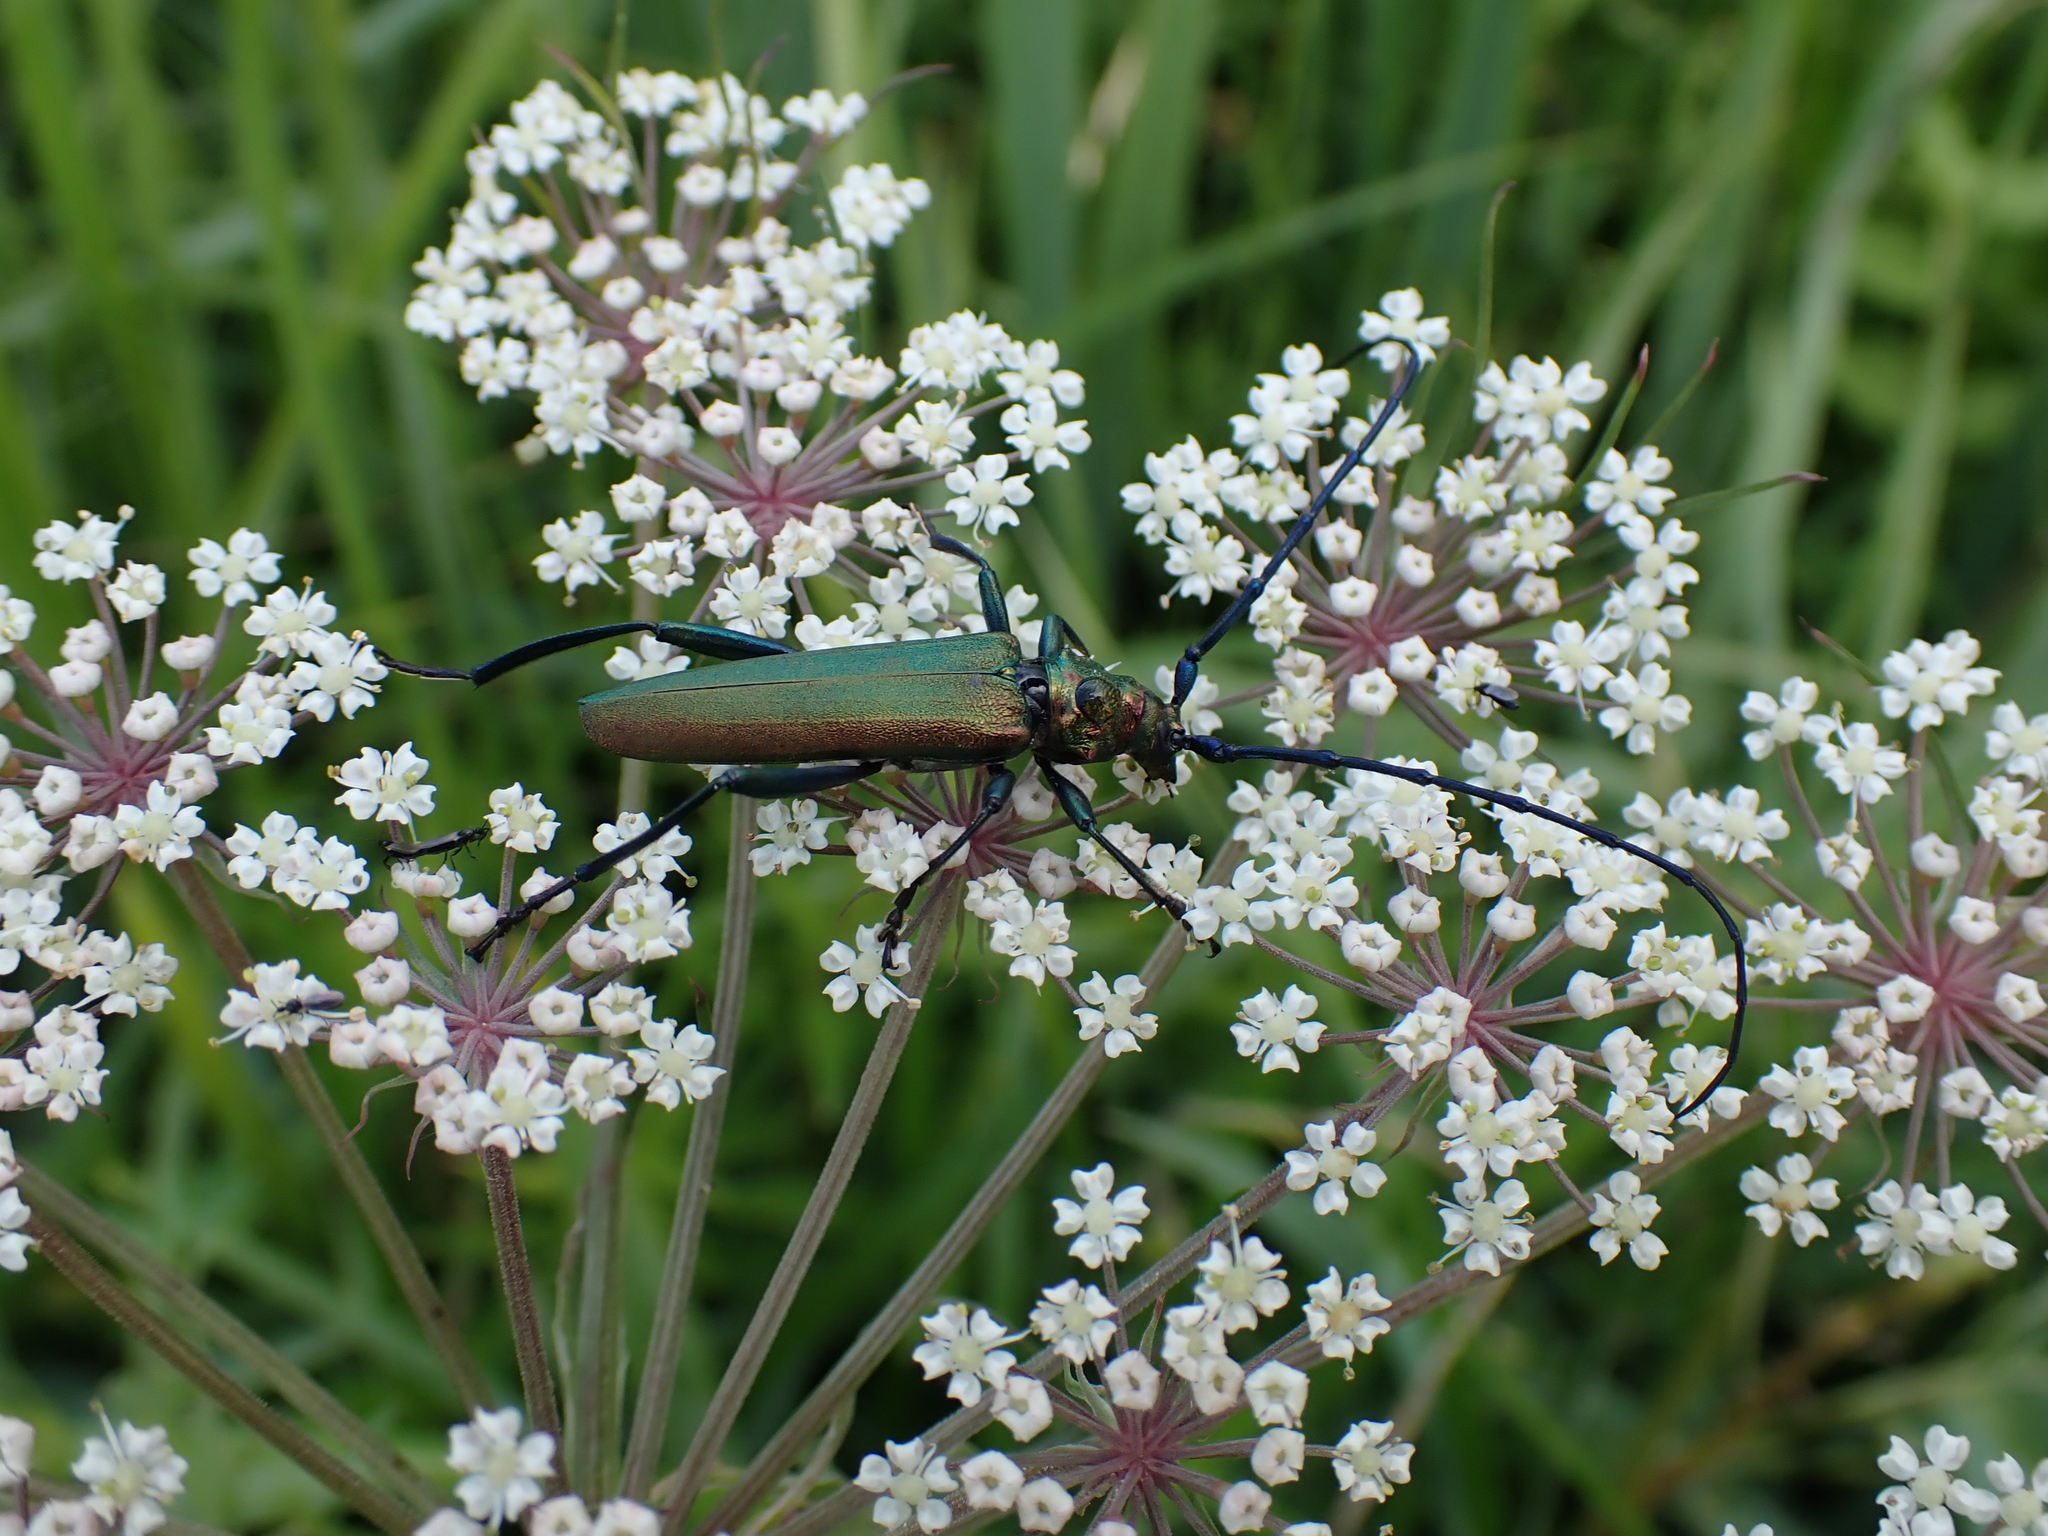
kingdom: Animalia
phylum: Arthropoda
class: Insecta
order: Coleoptera
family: Cerambycidae
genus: Aromia
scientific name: Aromia moschata
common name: Musk beetle
